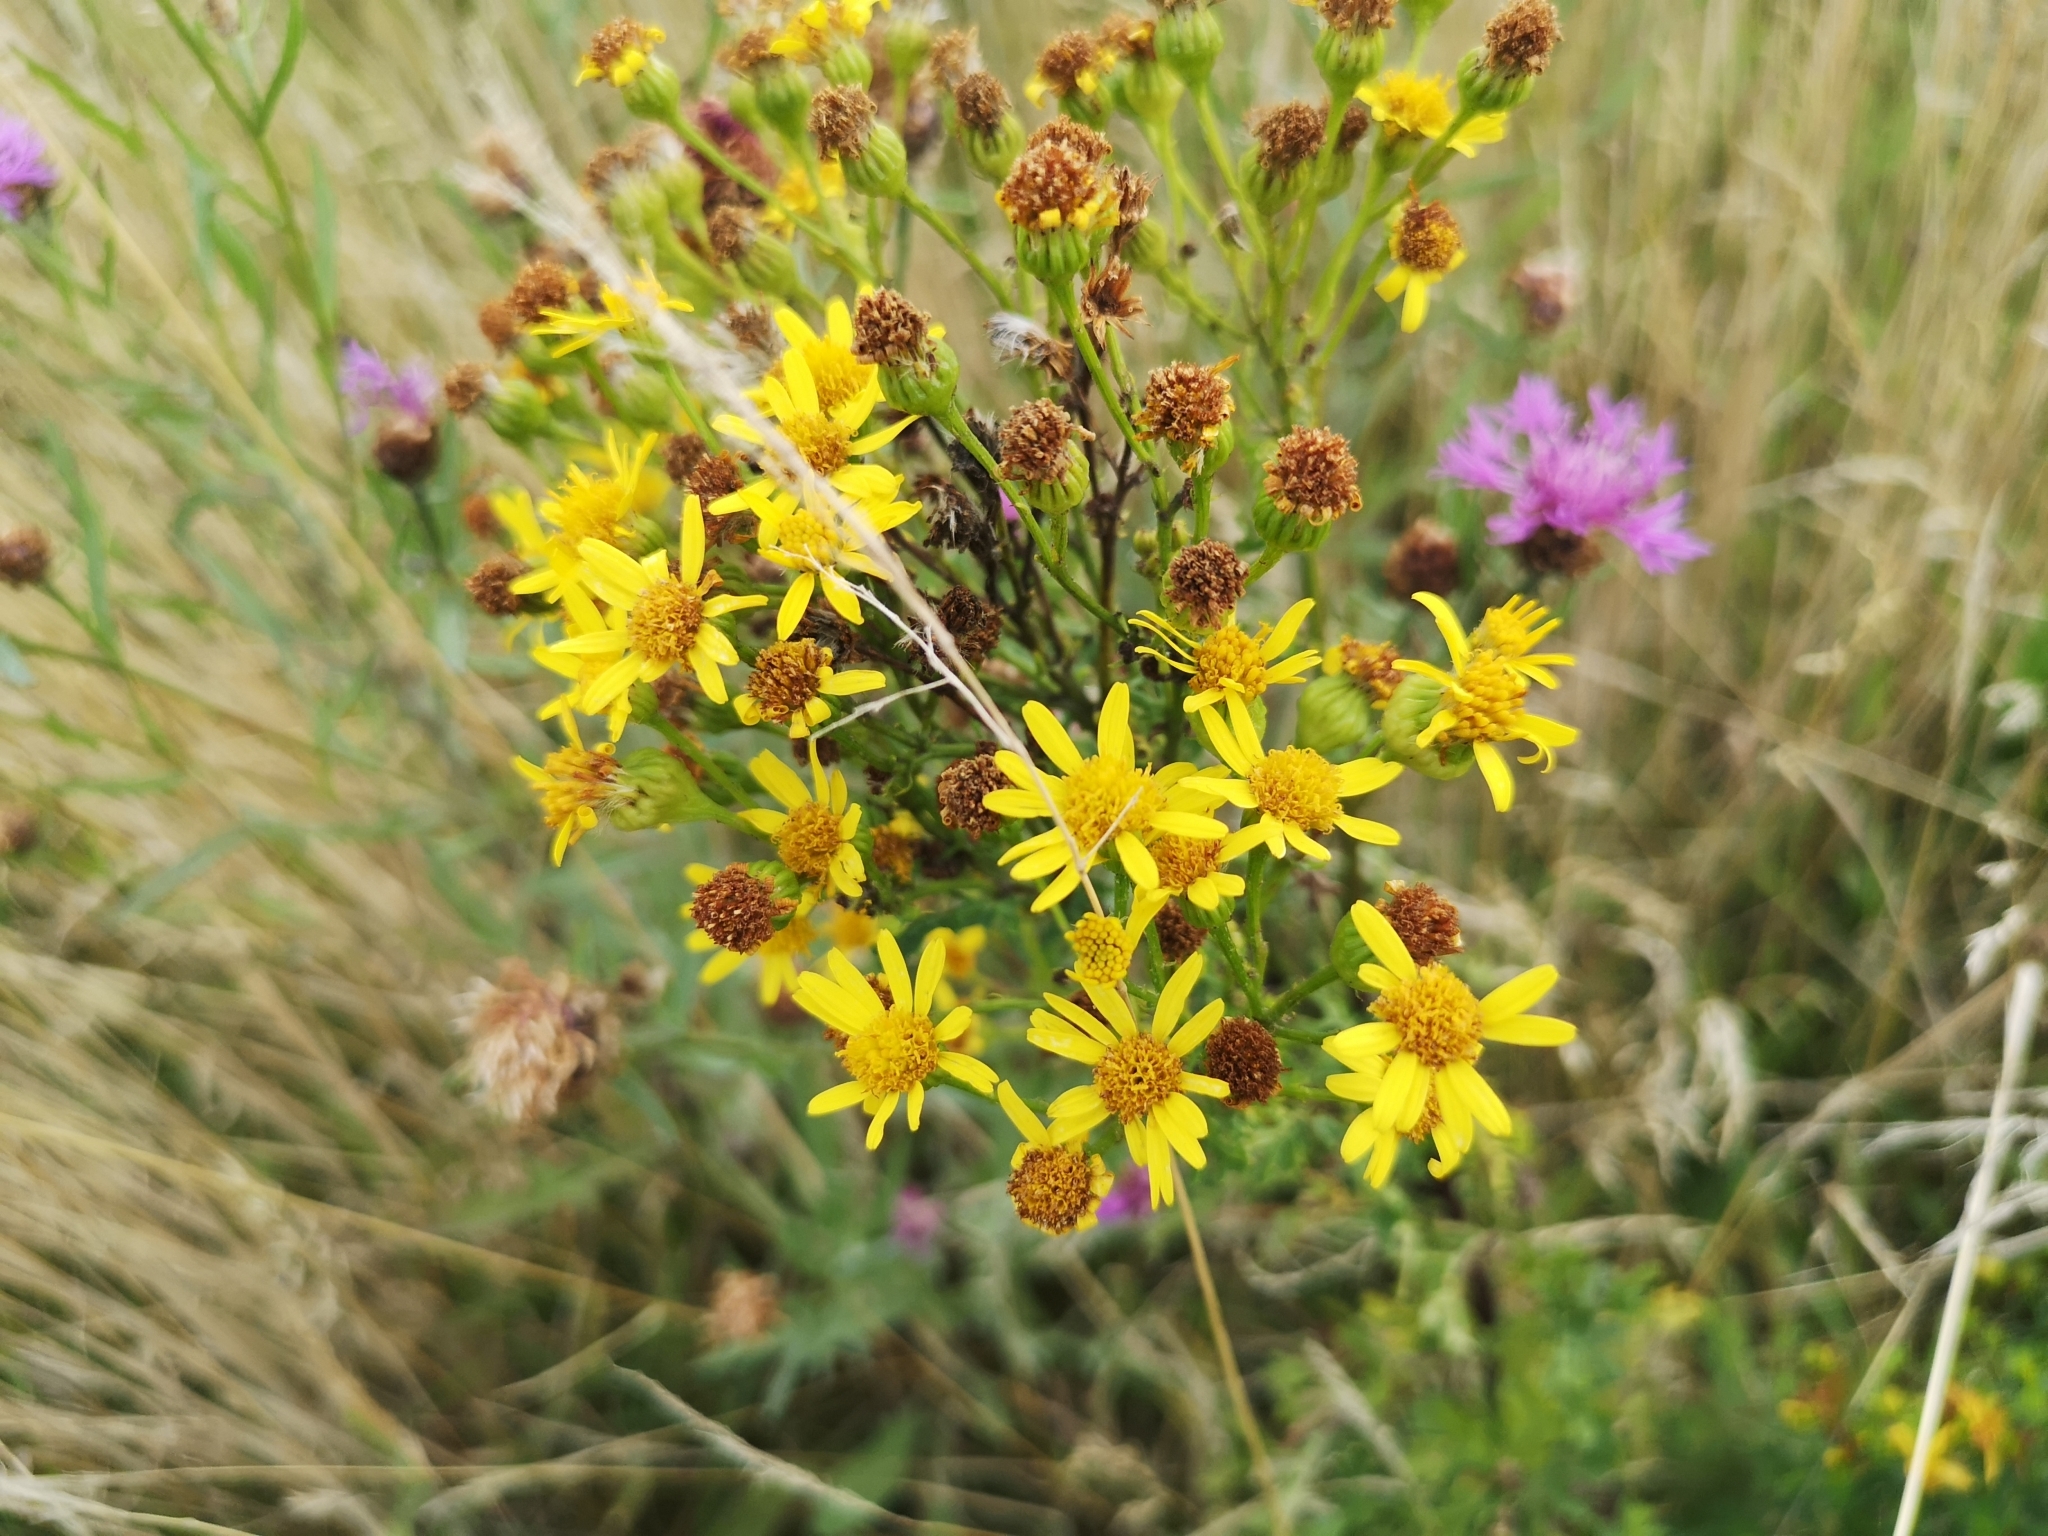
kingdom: Plantae
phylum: Tracheophyta
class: Magnoliopsida
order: Asterales
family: Asteraceae
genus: Jacobaea
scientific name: Jacobaea vulgaris
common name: Stinking willie
